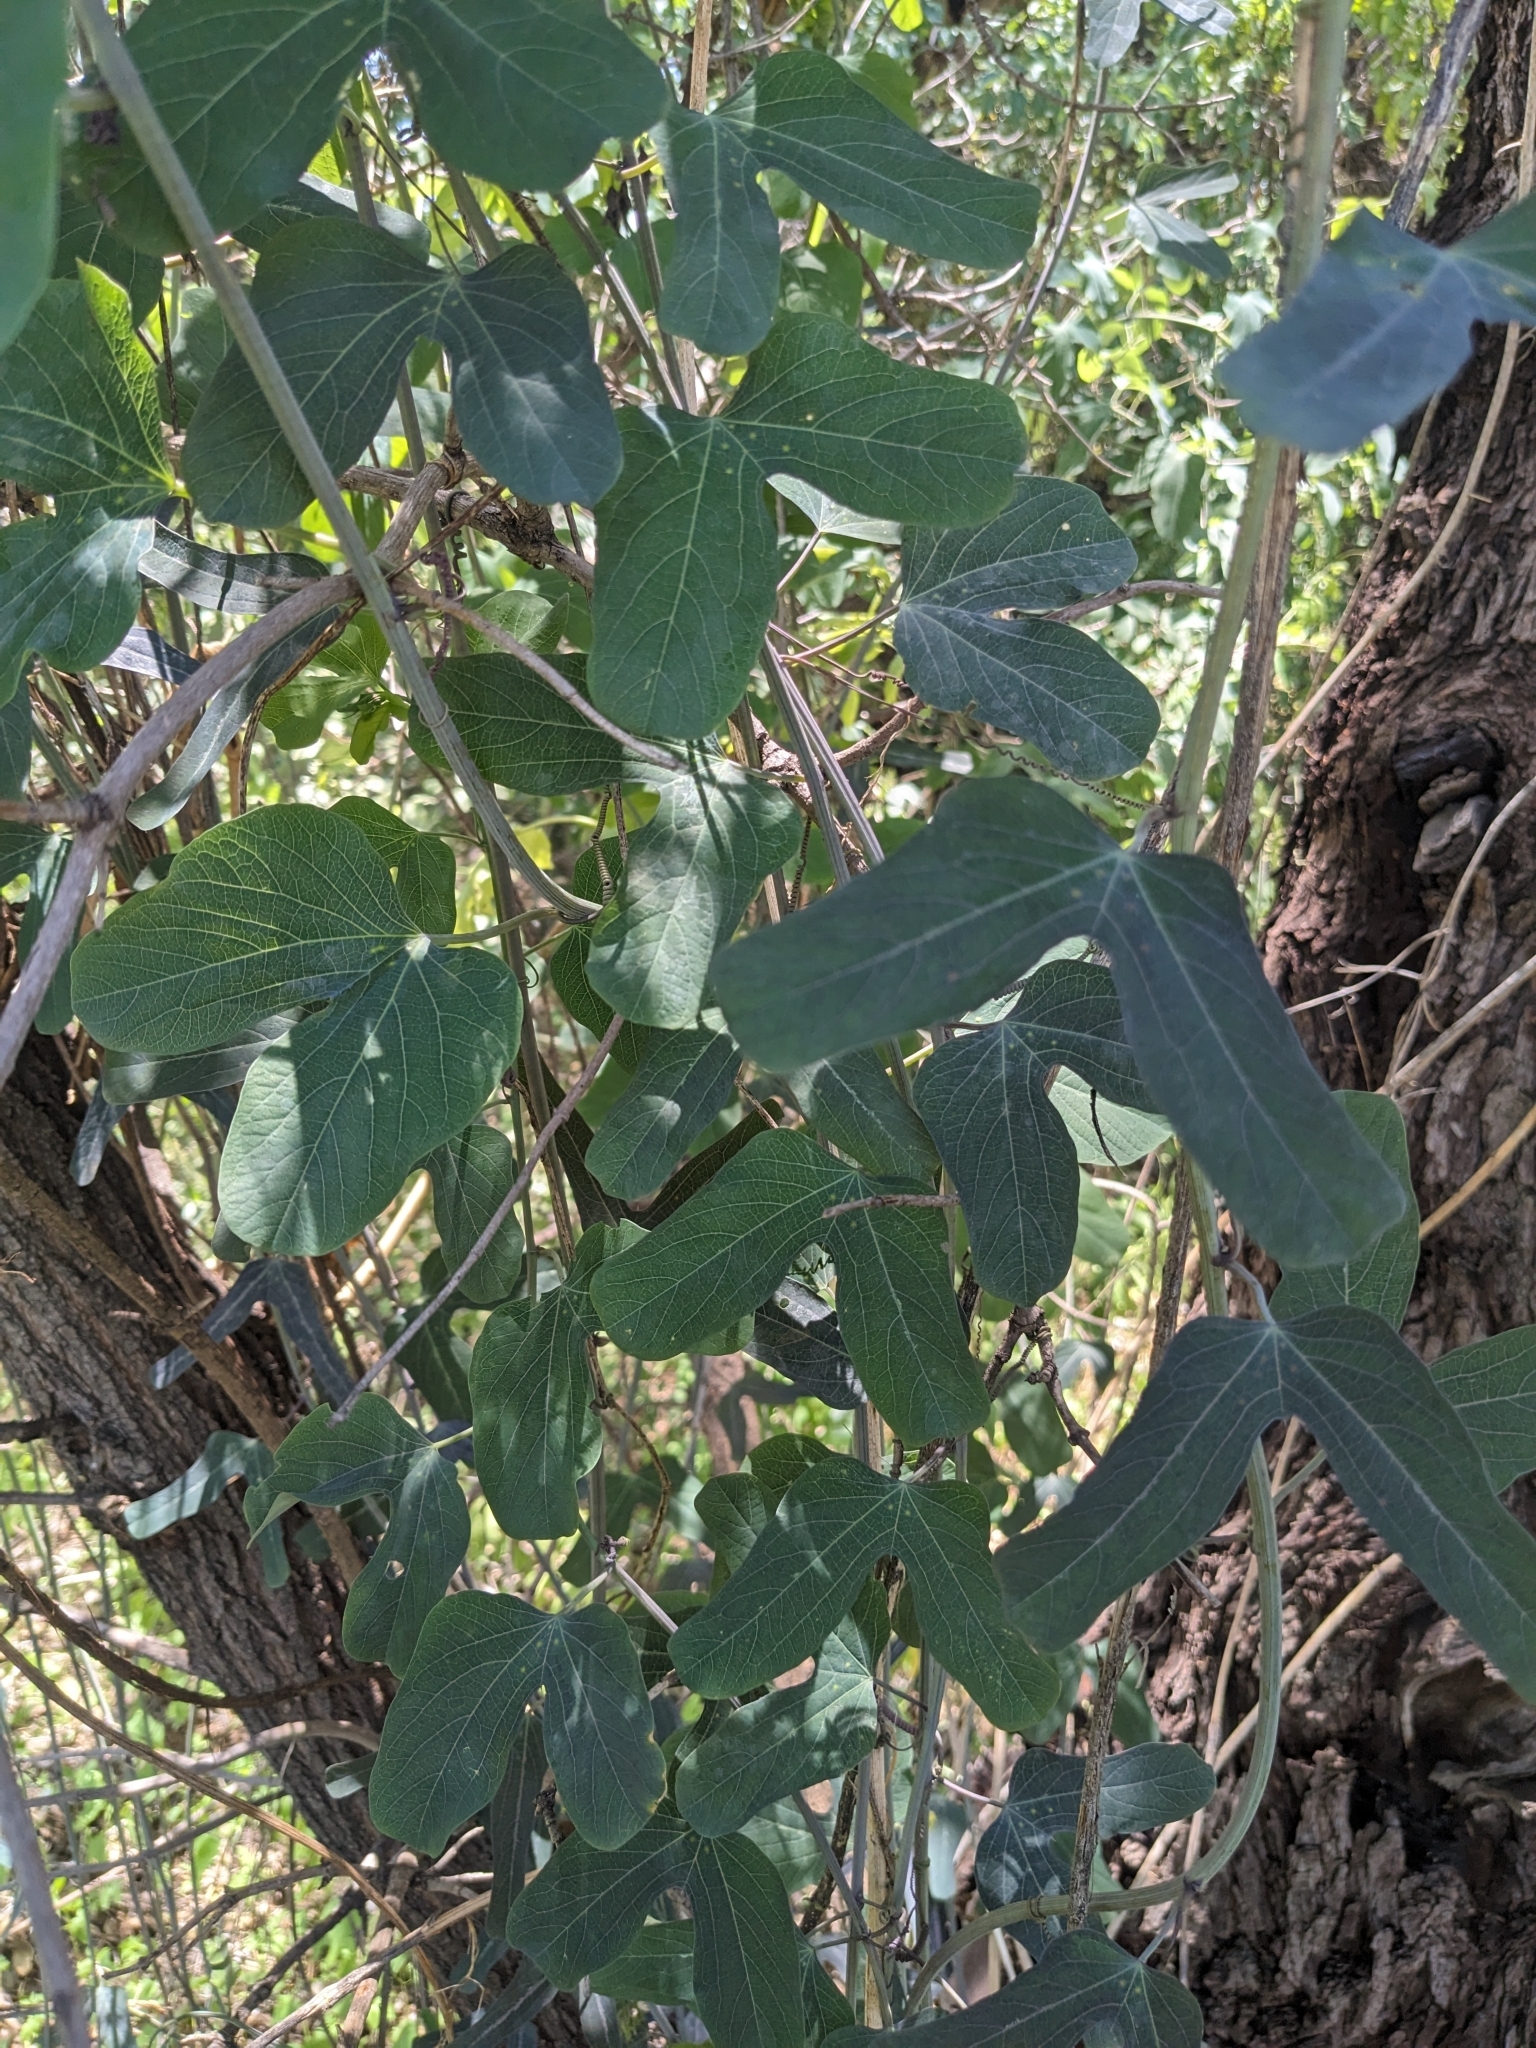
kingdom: Plantae
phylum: Tracheophyta
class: Magnoliopsida
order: Malpighiales
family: Passifloraceae
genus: Passiflora
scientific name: Passiflora mexicana
